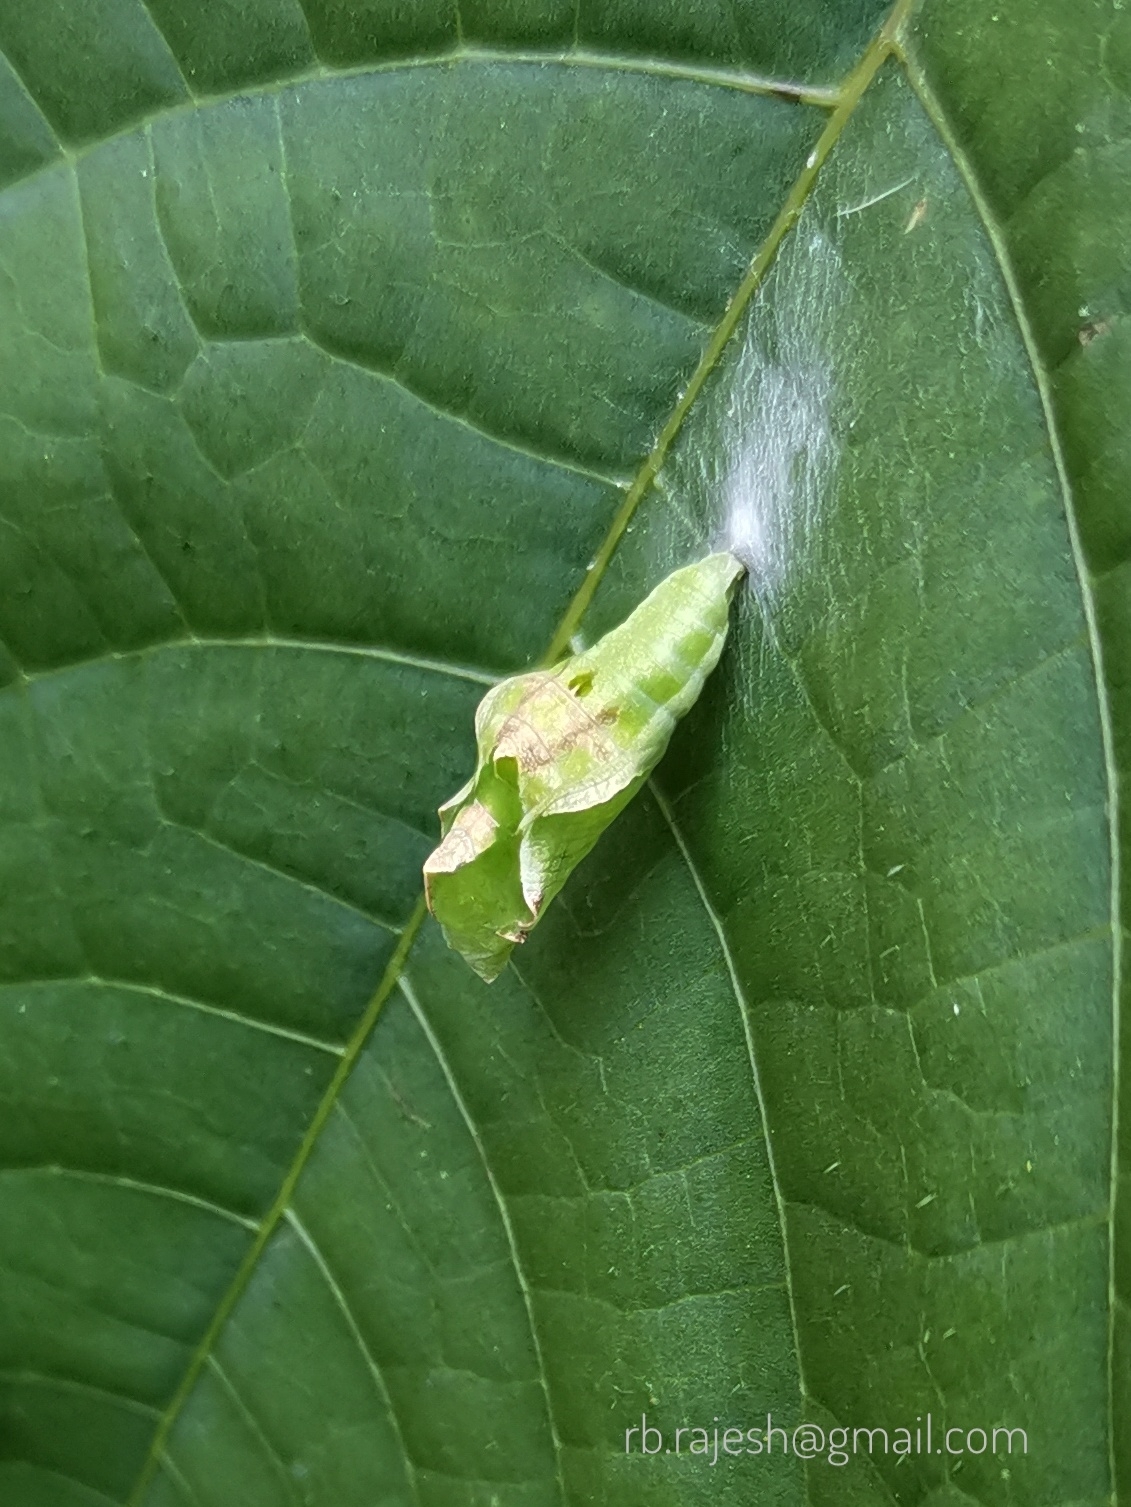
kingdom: Animalia
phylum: Arthropoda
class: Insecta
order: Lepidoptera
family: Nymphalidae
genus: Ariadne
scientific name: Ariadne merione
